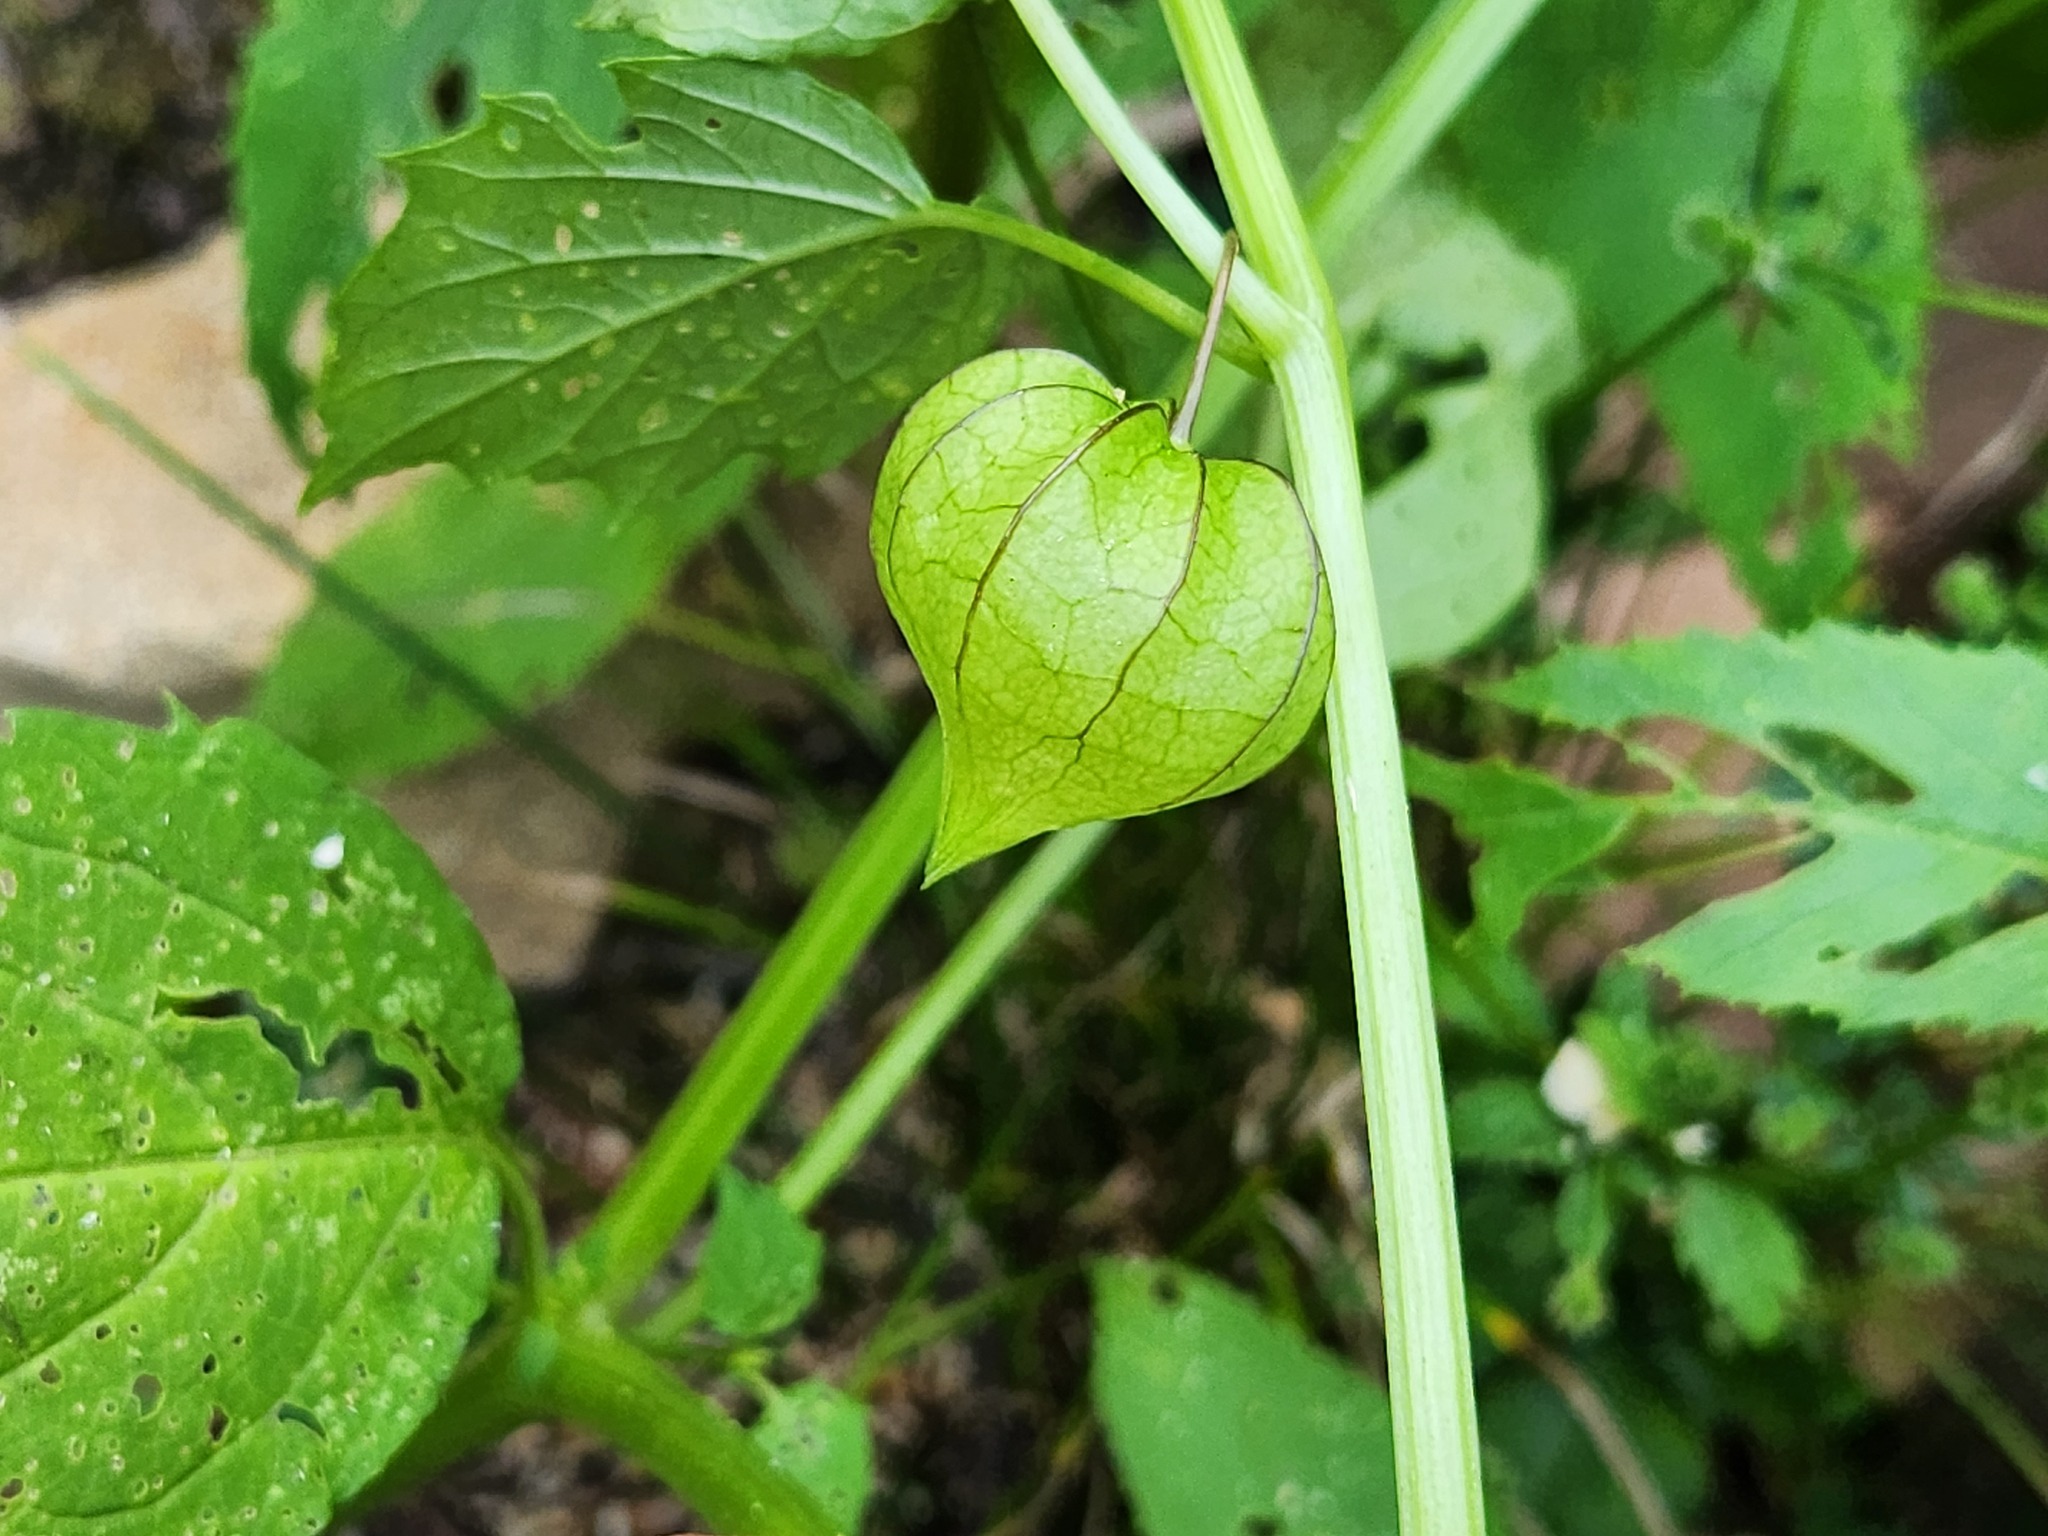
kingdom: Plantae
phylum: Tracheophyta
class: Magnoliopsida
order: Solanales
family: Solanaceae
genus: Physalis
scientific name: Physalis angulata
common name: Angular winter-cherry
